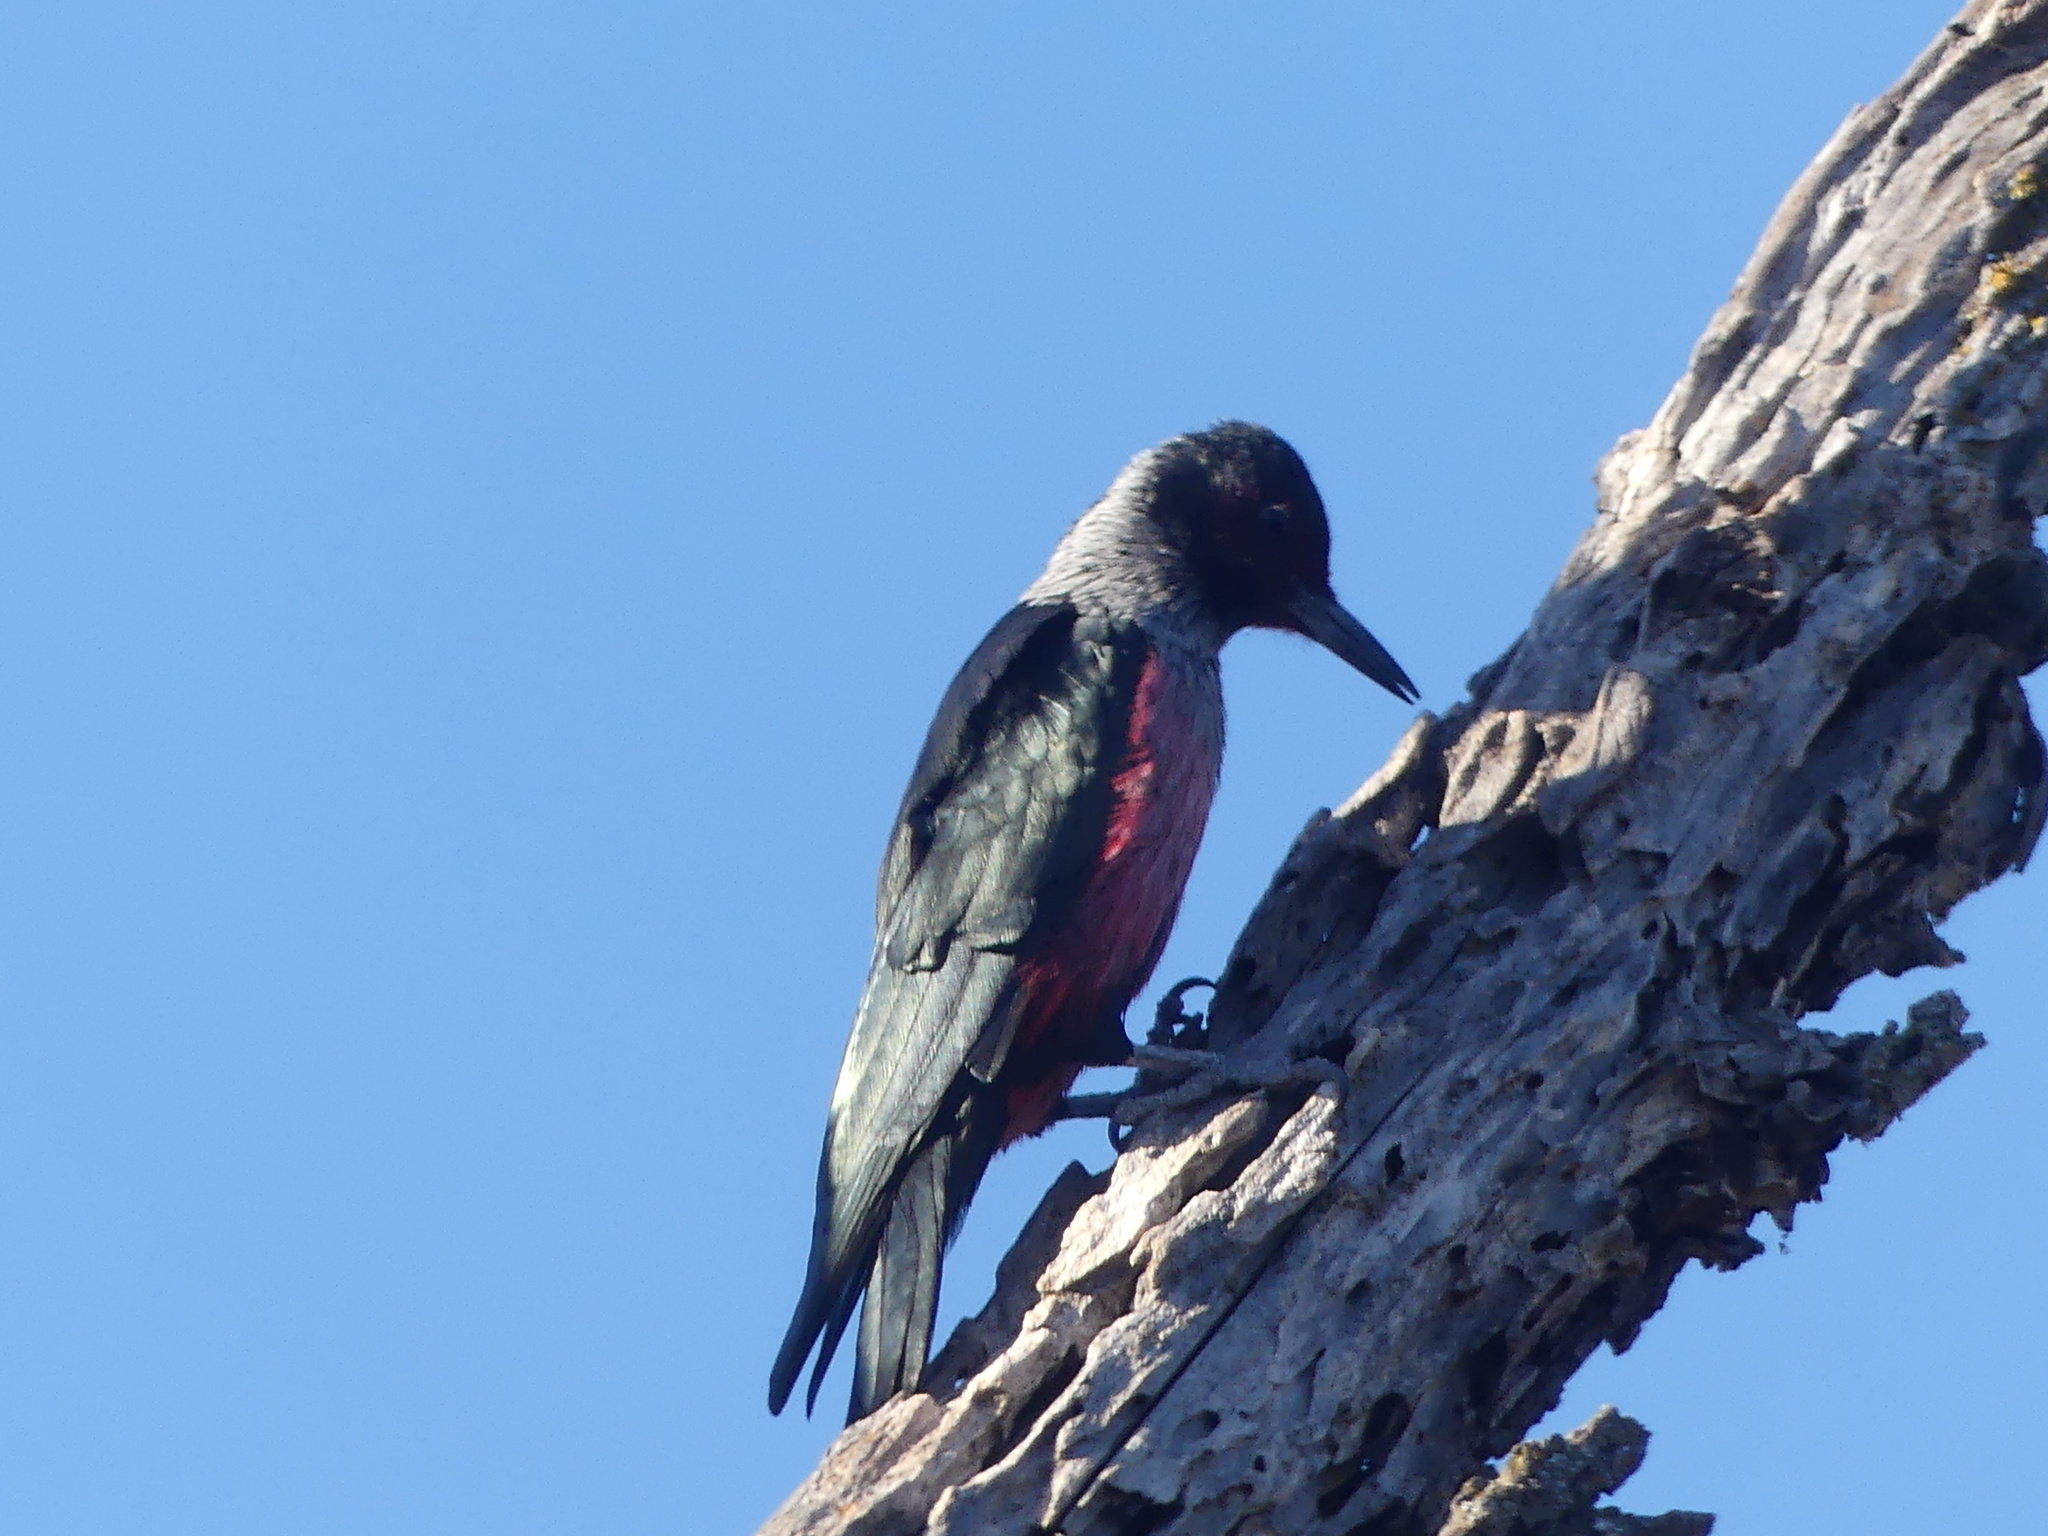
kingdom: Animalia
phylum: Chordata
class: Aves
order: Piciformes
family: Picidae
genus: Melanerpes
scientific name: Melanerpes lewis
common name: Lewis's woodpecker
